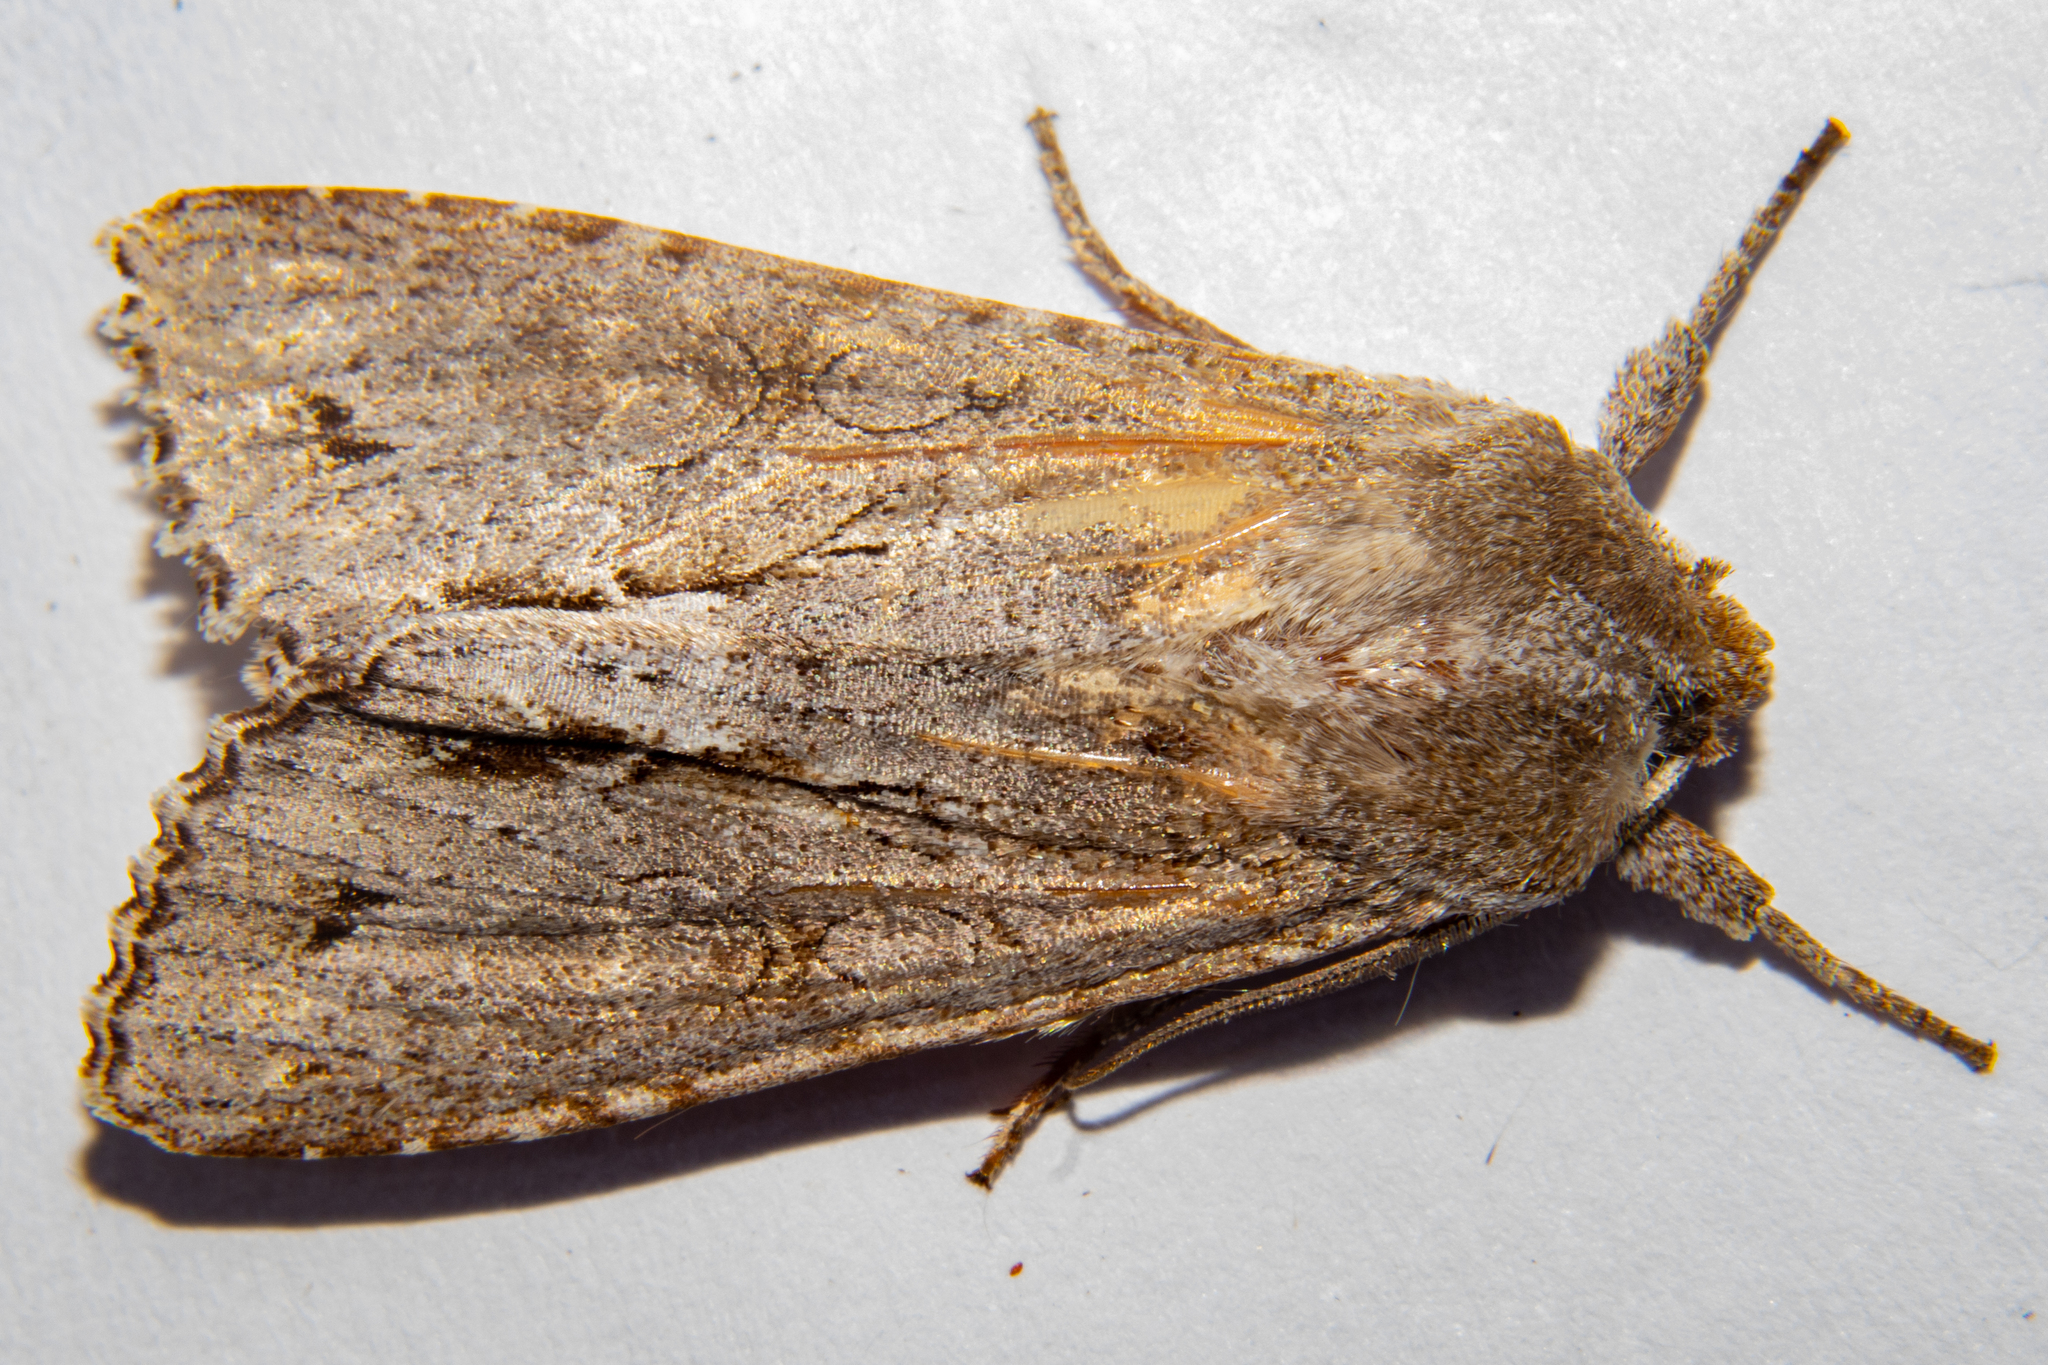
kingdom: Animalia
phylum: Arthropoda
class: Insecta
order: Lepidoptera
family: Noctuidae
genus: Ichneutica
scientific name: Ichneutica
